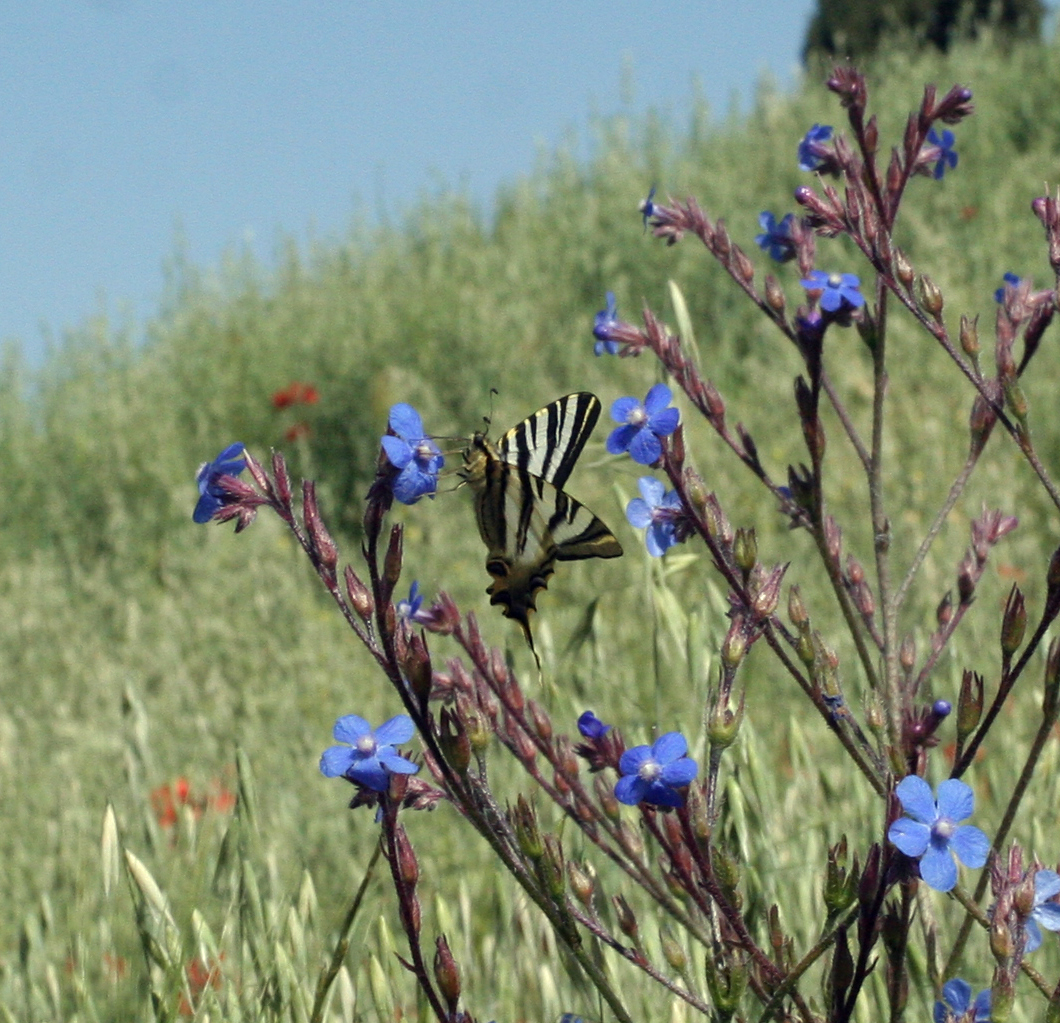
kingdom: Animalia
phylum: Arthropoda
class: Insecta
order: Lepidoptera
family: Papilionidae
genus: Iphiclides
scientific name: Iphiclides feisthamelii
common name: Iberian scarce swallowtail
